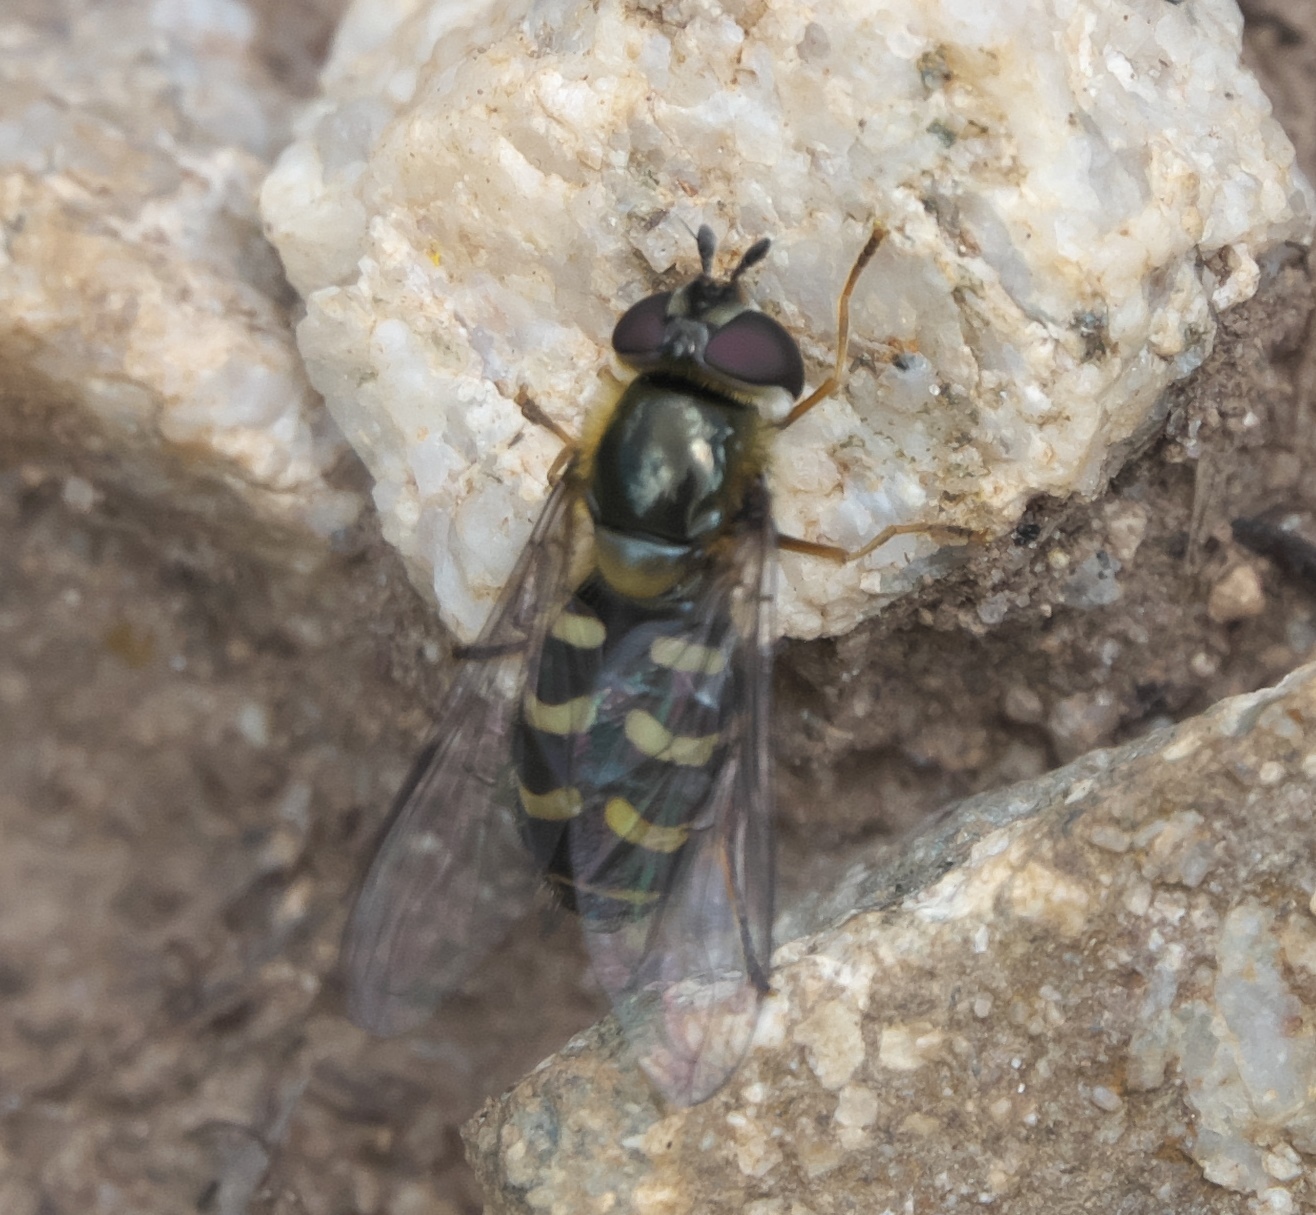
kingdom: Animalia
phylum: Arthropoda
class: Insecta
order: Diptera
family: Syrphidae
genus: Lapposyrphus
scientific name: Lapposyrphus lapponicus
